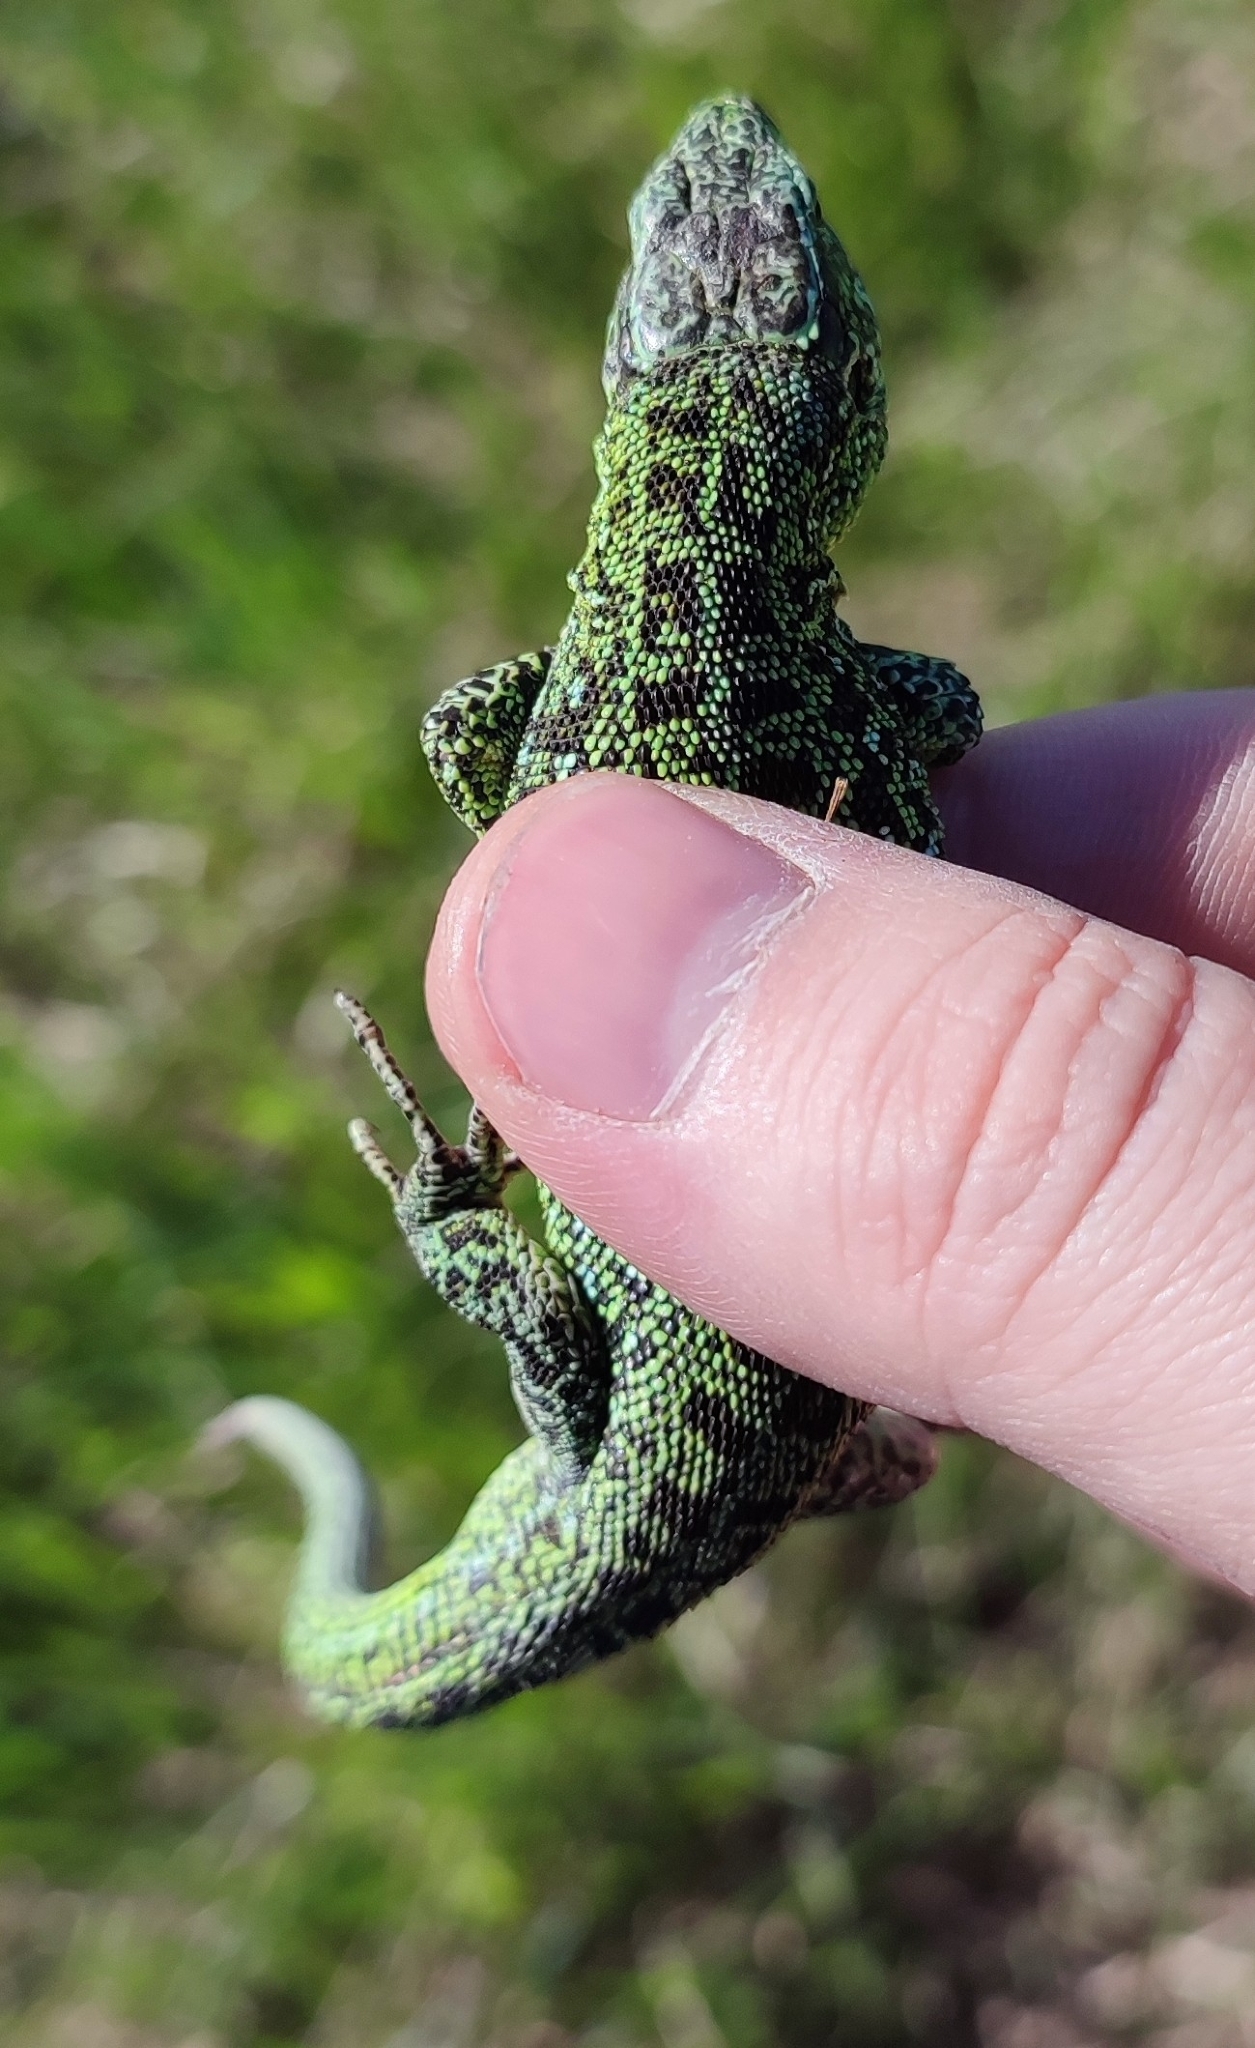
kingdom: Animalia
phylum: Chordata
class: Squamata
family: Lacertidae
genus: Lacerta
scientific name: Lacerta agilis
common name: Sand lizard
